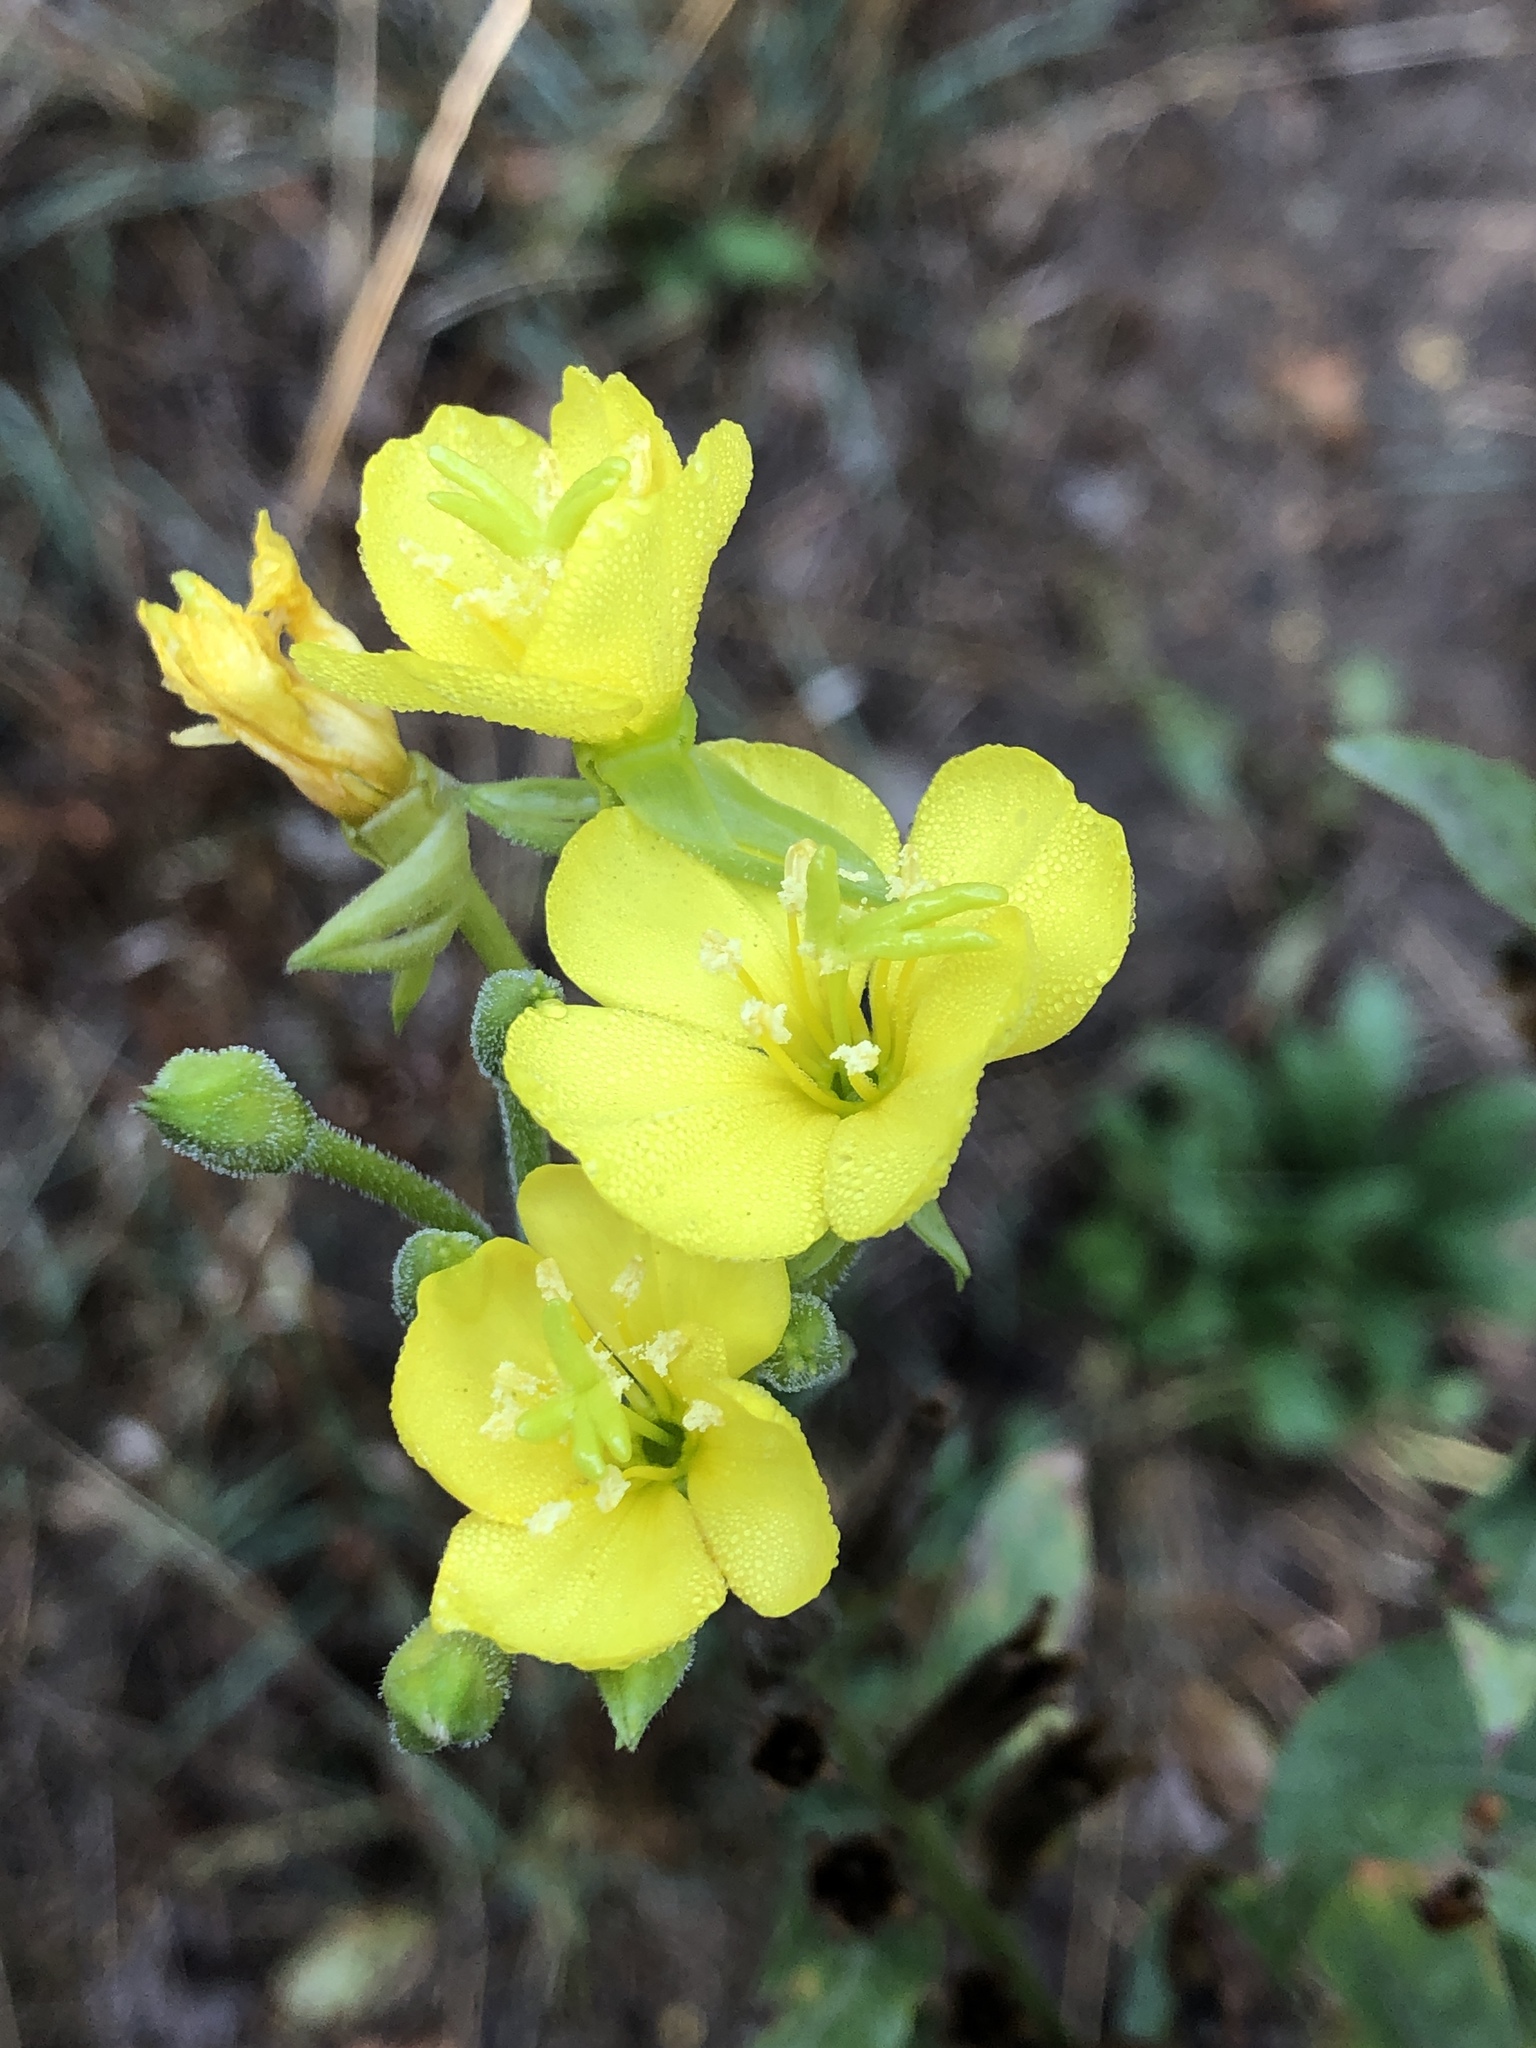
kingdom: Plantae
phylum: Tracheophyta
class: Magnoliopsida
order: Myrtales
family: Onagraceae
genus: Oenothera
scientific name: Oenothera biennis
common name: Common evening-primrose
